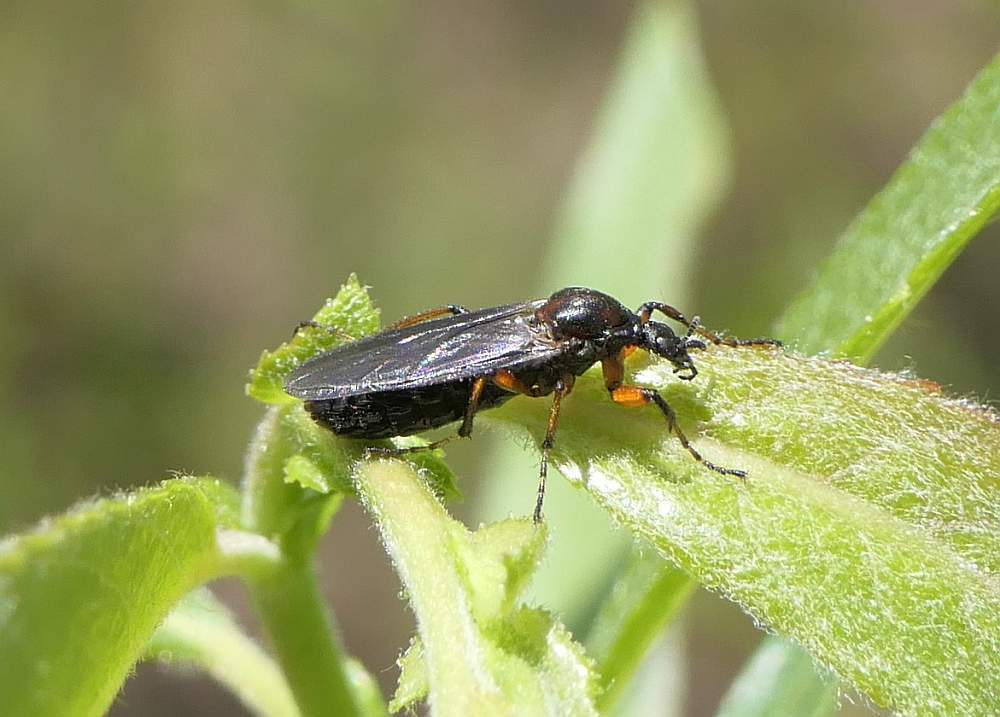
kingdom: Animalia
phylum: Arthropoda
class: Insecta
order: Diptera
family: Bibionidae
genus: Bibio
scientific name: Bibio articulatus
